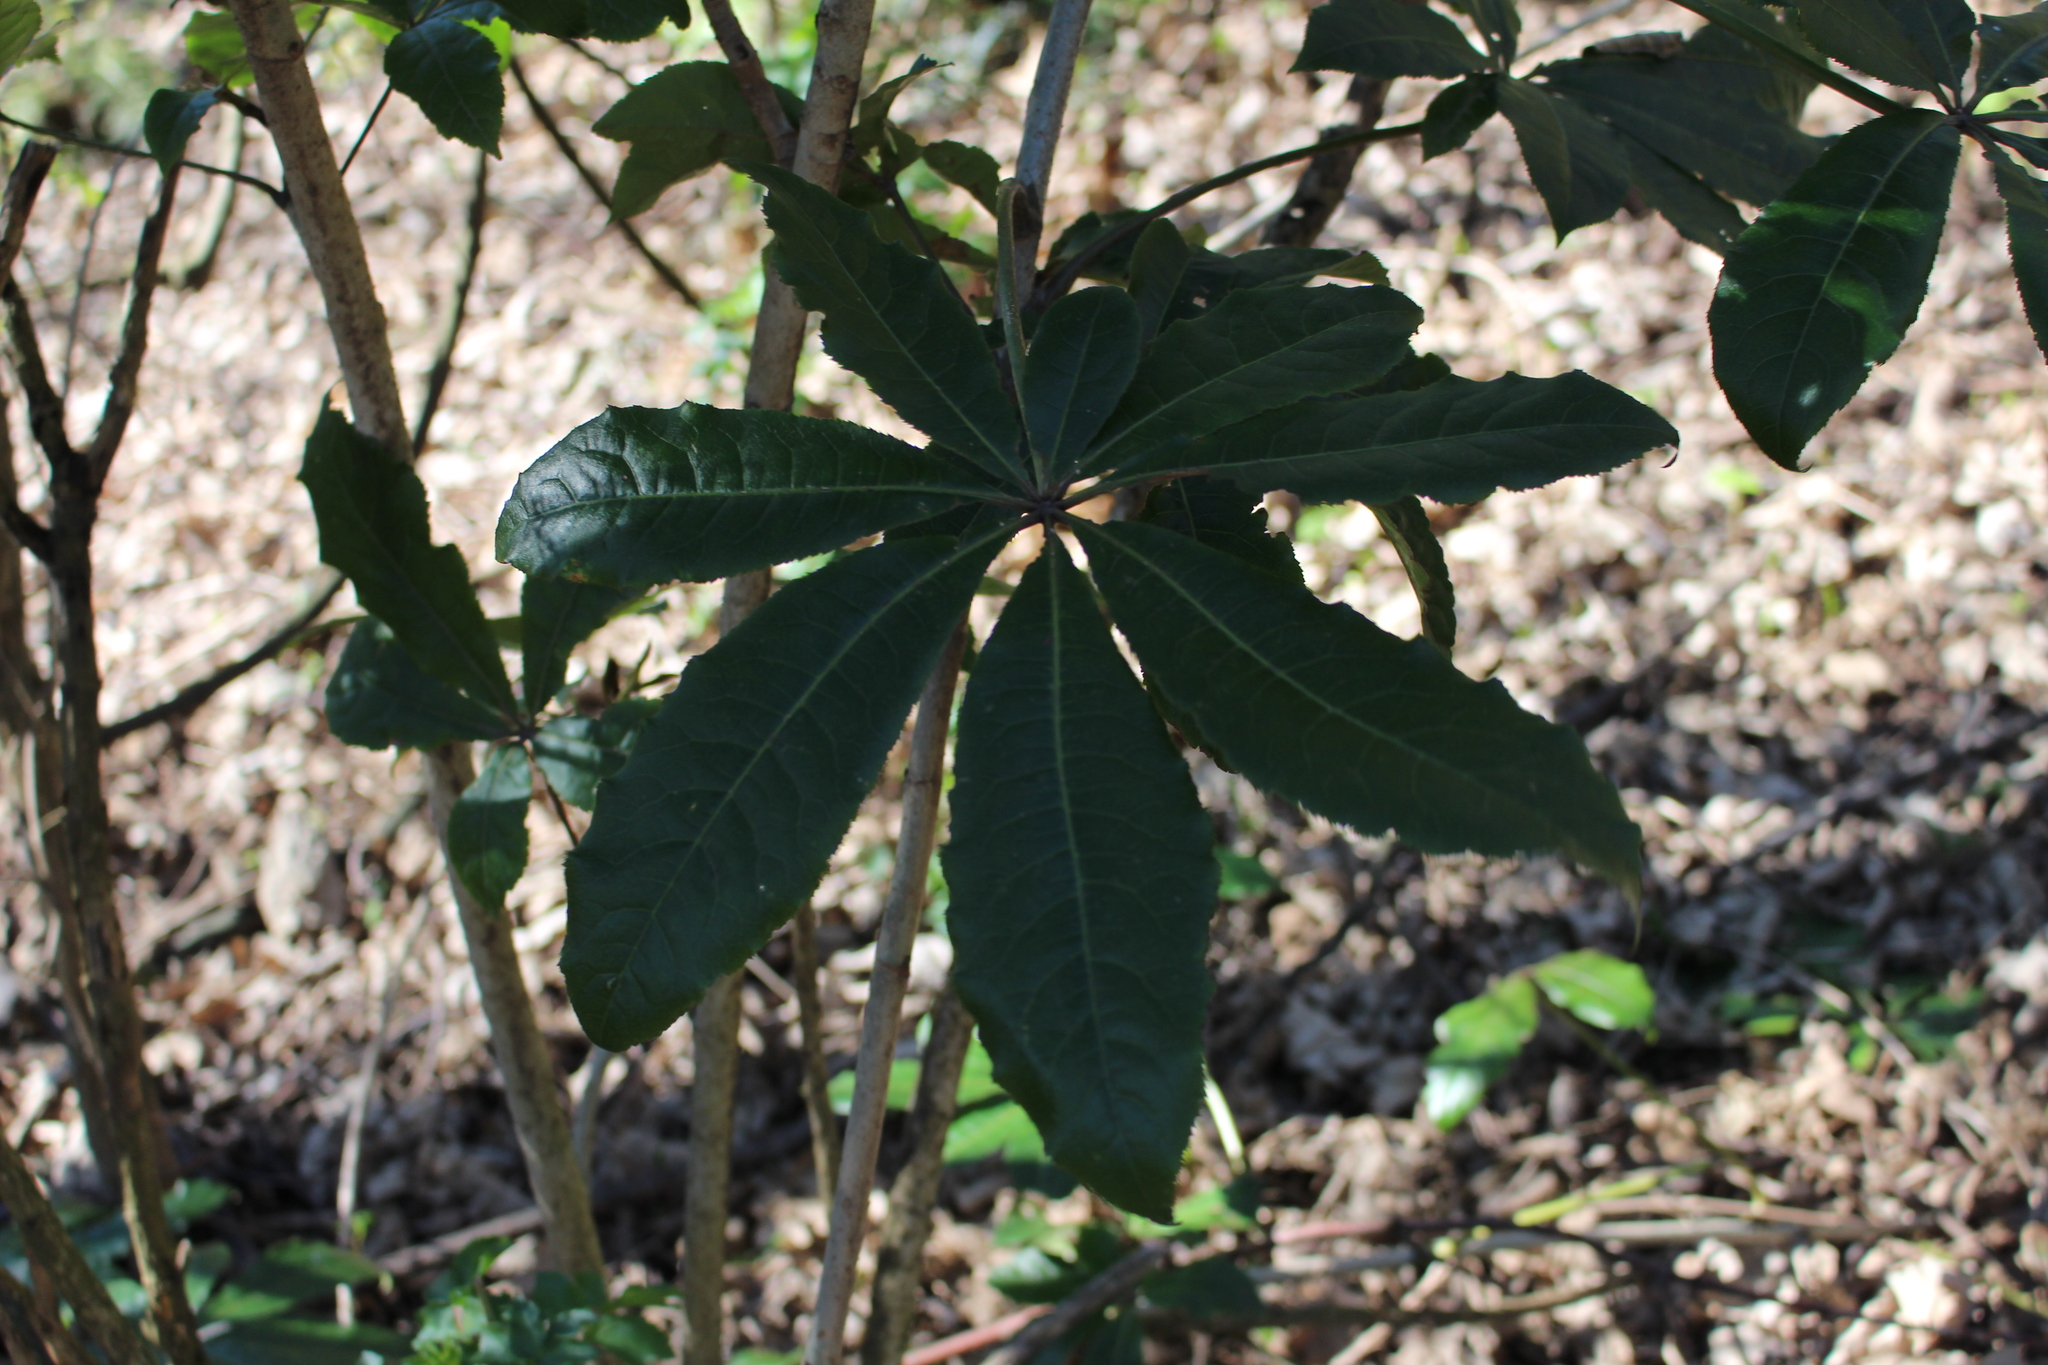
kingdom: Plantae
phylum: Tracheophyta
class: Magnoliopsida
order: Apiales
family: Araliaceae
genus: Schefflera
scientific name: Schefflera digitata
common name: Pate
